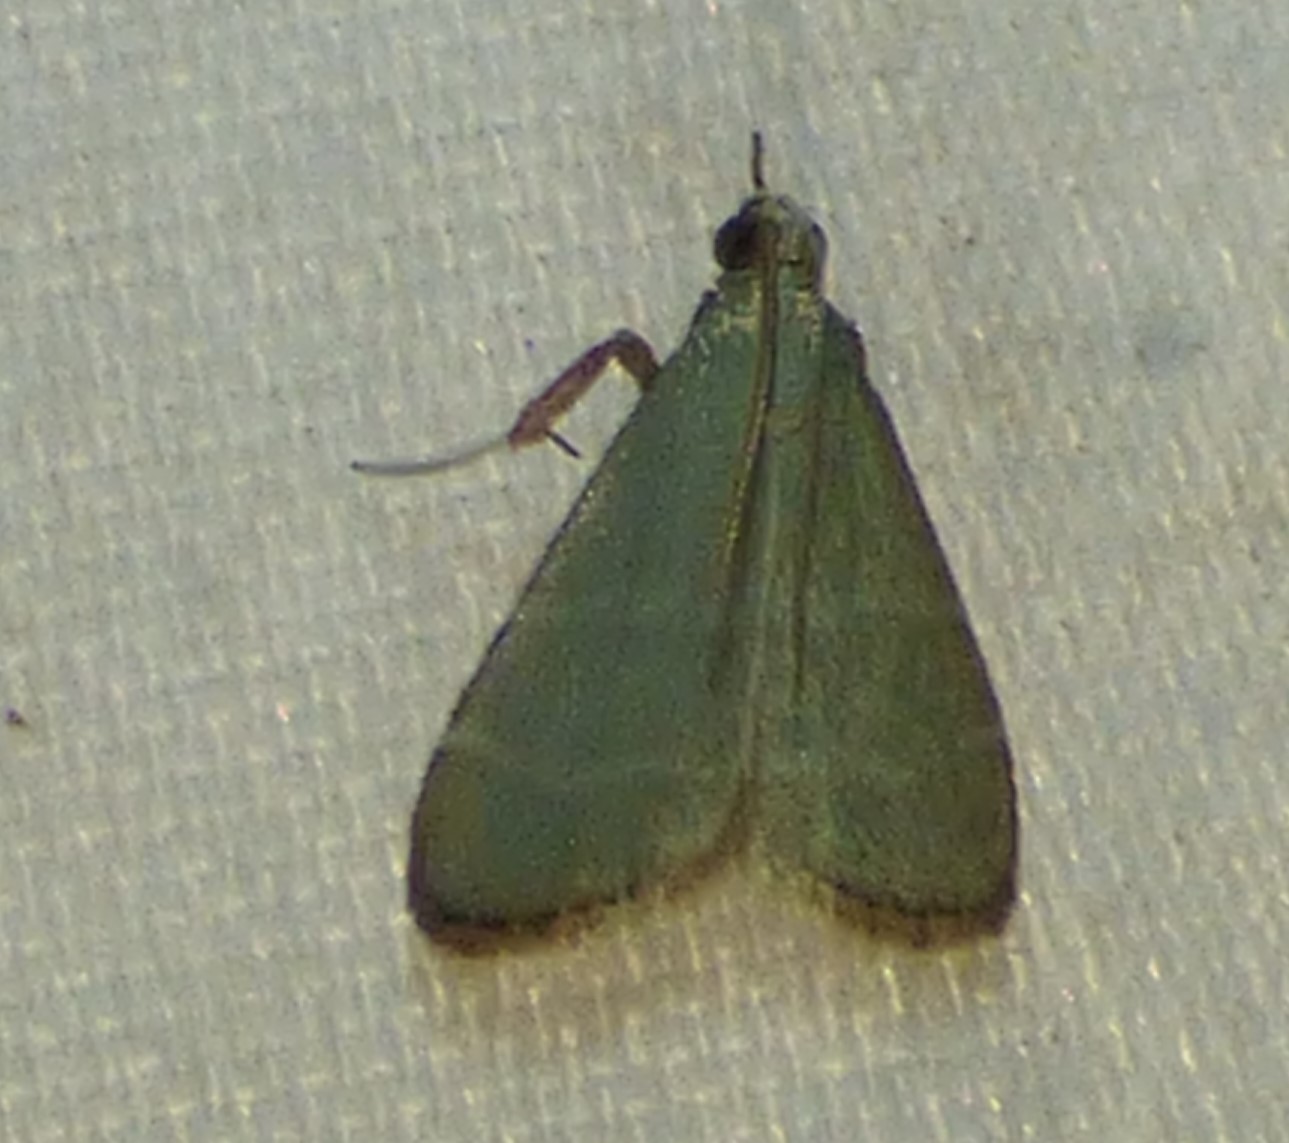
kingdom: Animalia
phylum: Arthropoda
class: Insecta
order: Lepidoptera
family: Pyralidae
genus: Arta
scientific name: Arta olivalis
